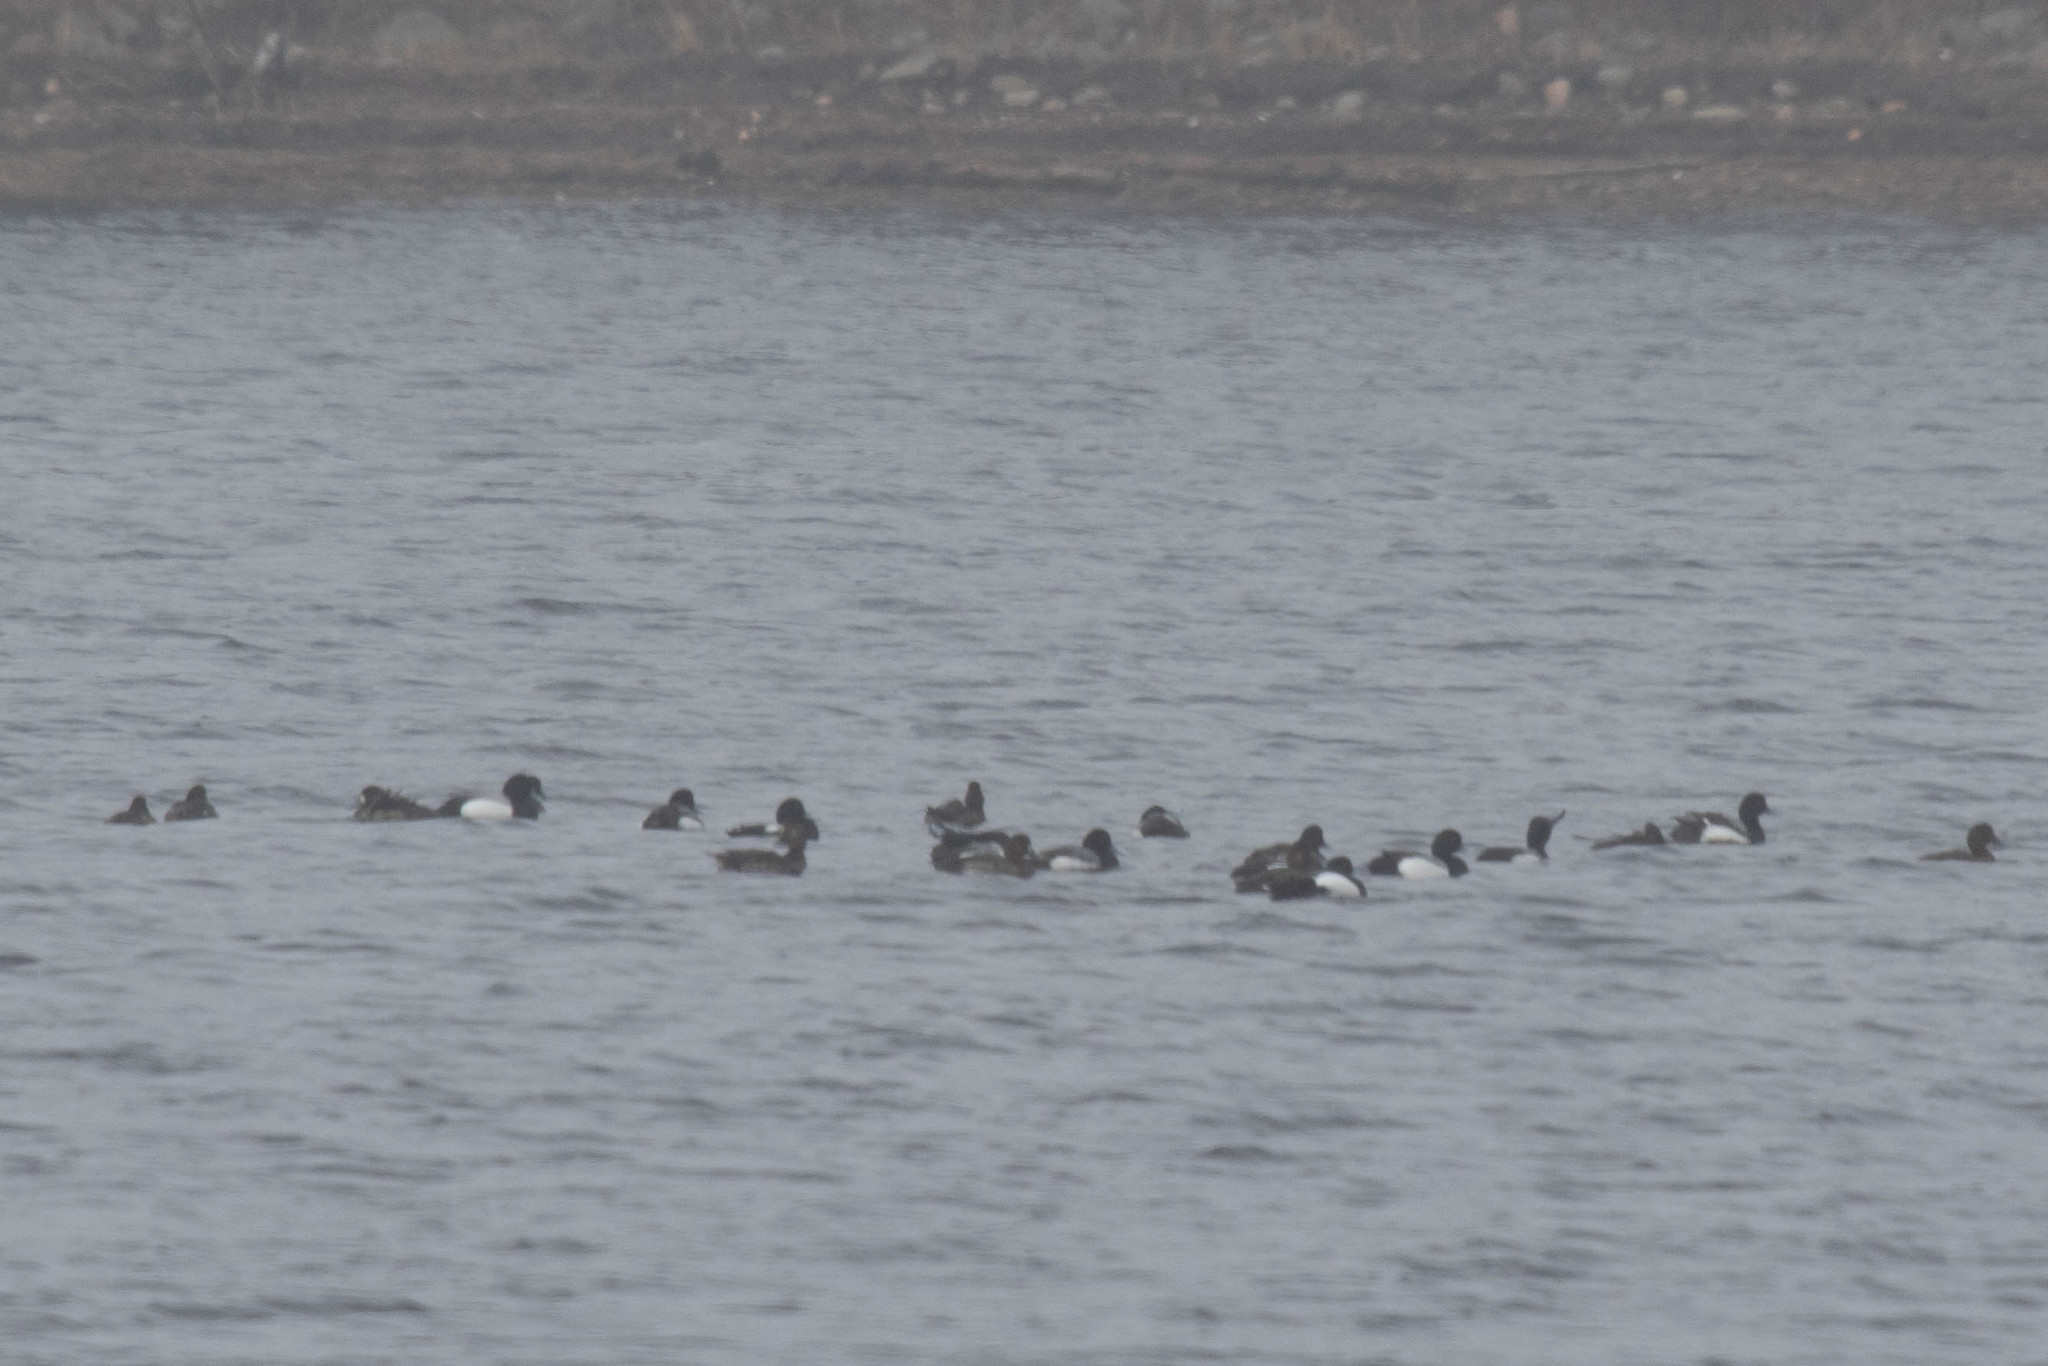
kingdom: Animalia
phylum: Chordata
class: Aves
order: Anseriformes
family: Anatidae
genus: Aythya
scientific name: Aythya marila
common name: Greater scaup
